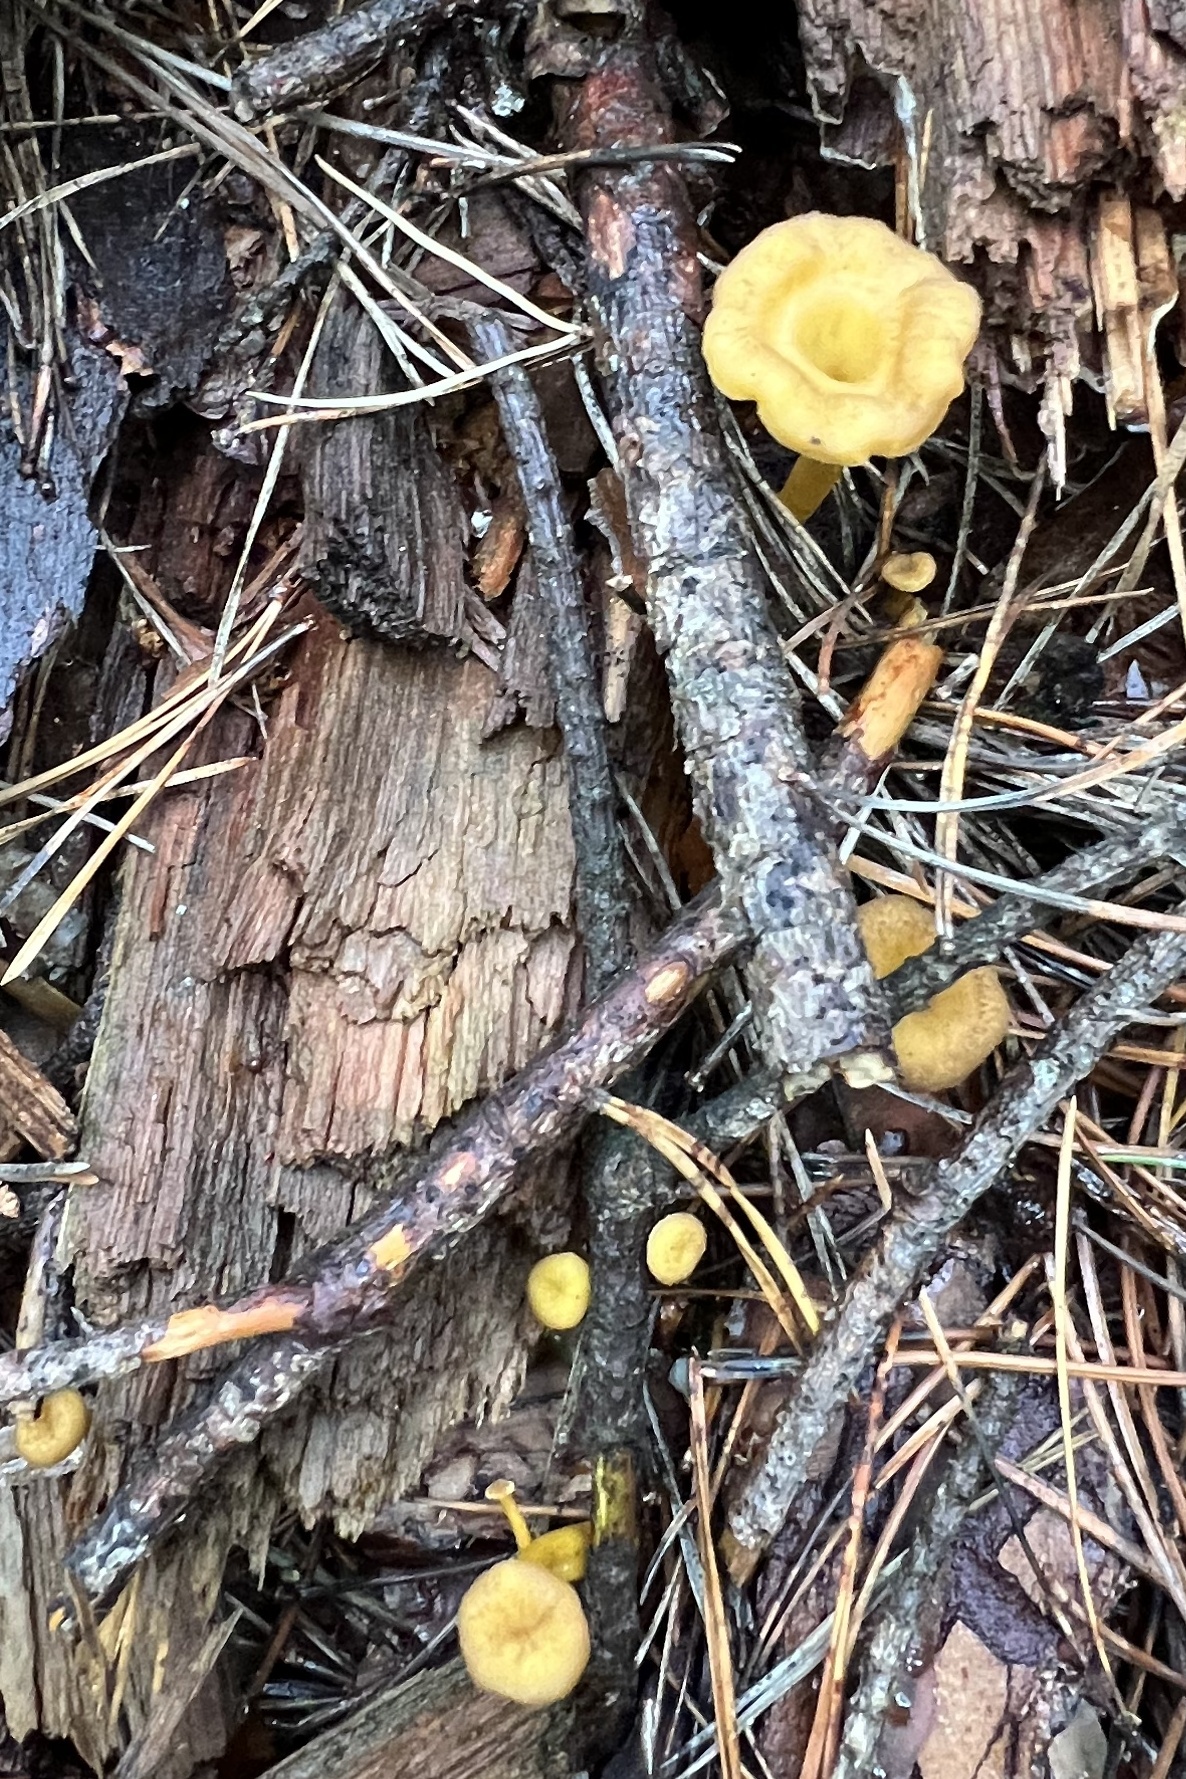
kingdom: Fungi
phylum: Basidiomycota
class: Agaricomycetes
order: Cantharellales
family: Hydnaceae
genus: Craterellus
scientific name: Craterellus tubaeformis
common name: Yellowfoot
